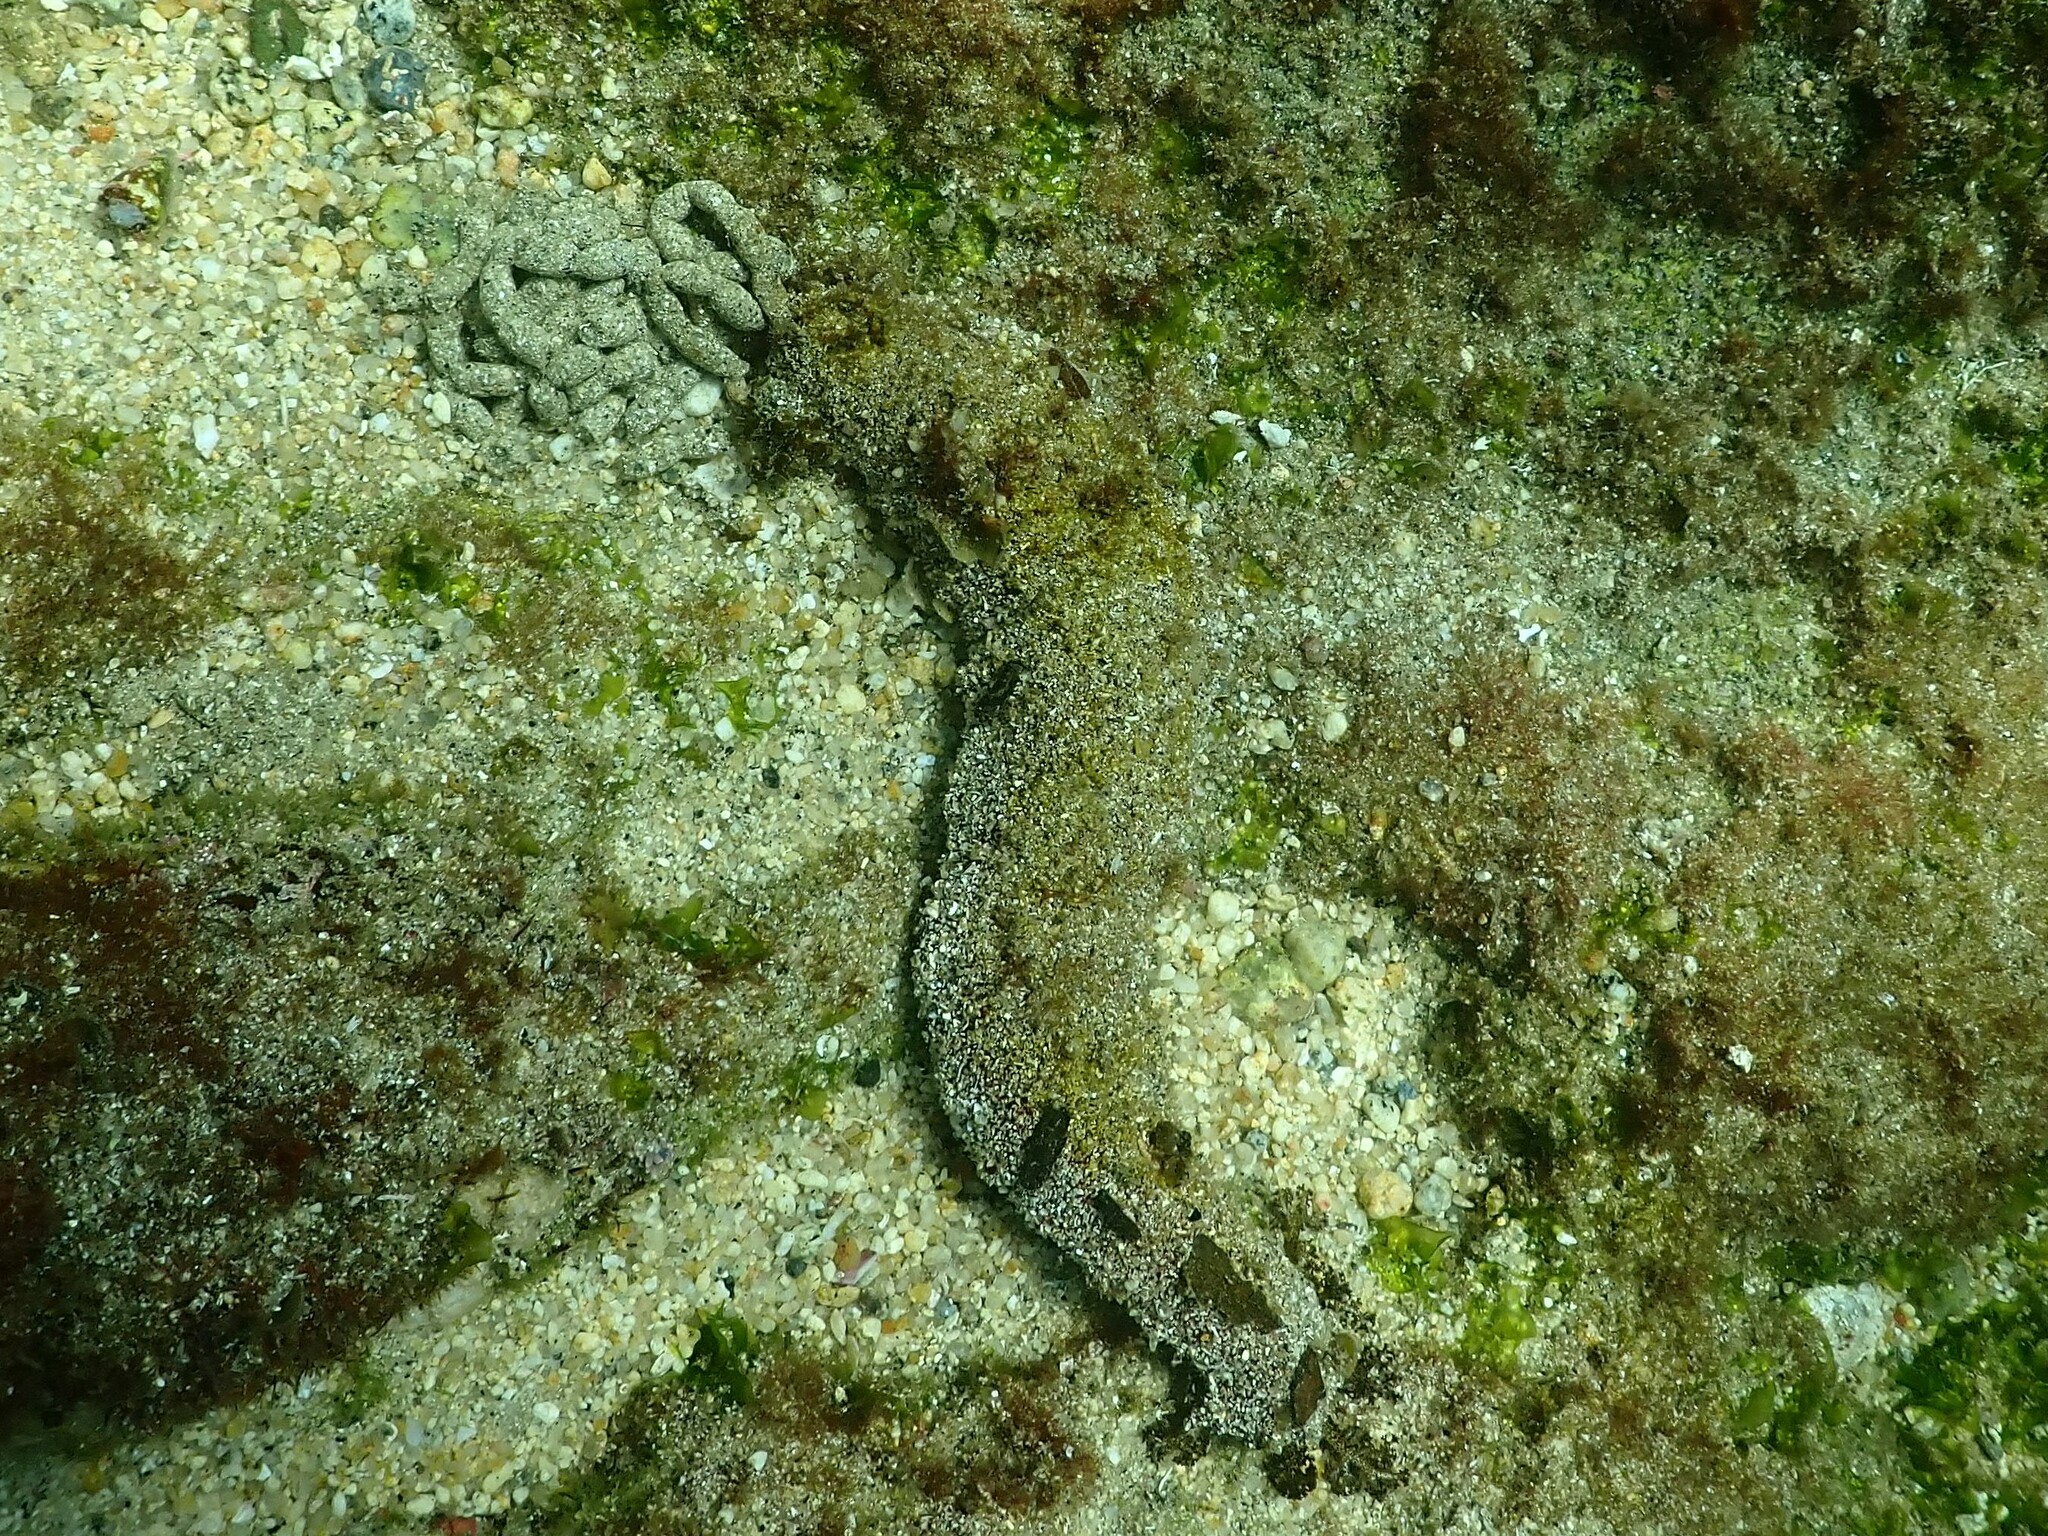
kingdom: Animalia
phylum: Echinodermata
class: Holothuroidea
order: Holothuriida
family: Holothuriidae
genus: Holothuria
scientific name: Holothuria inornata
